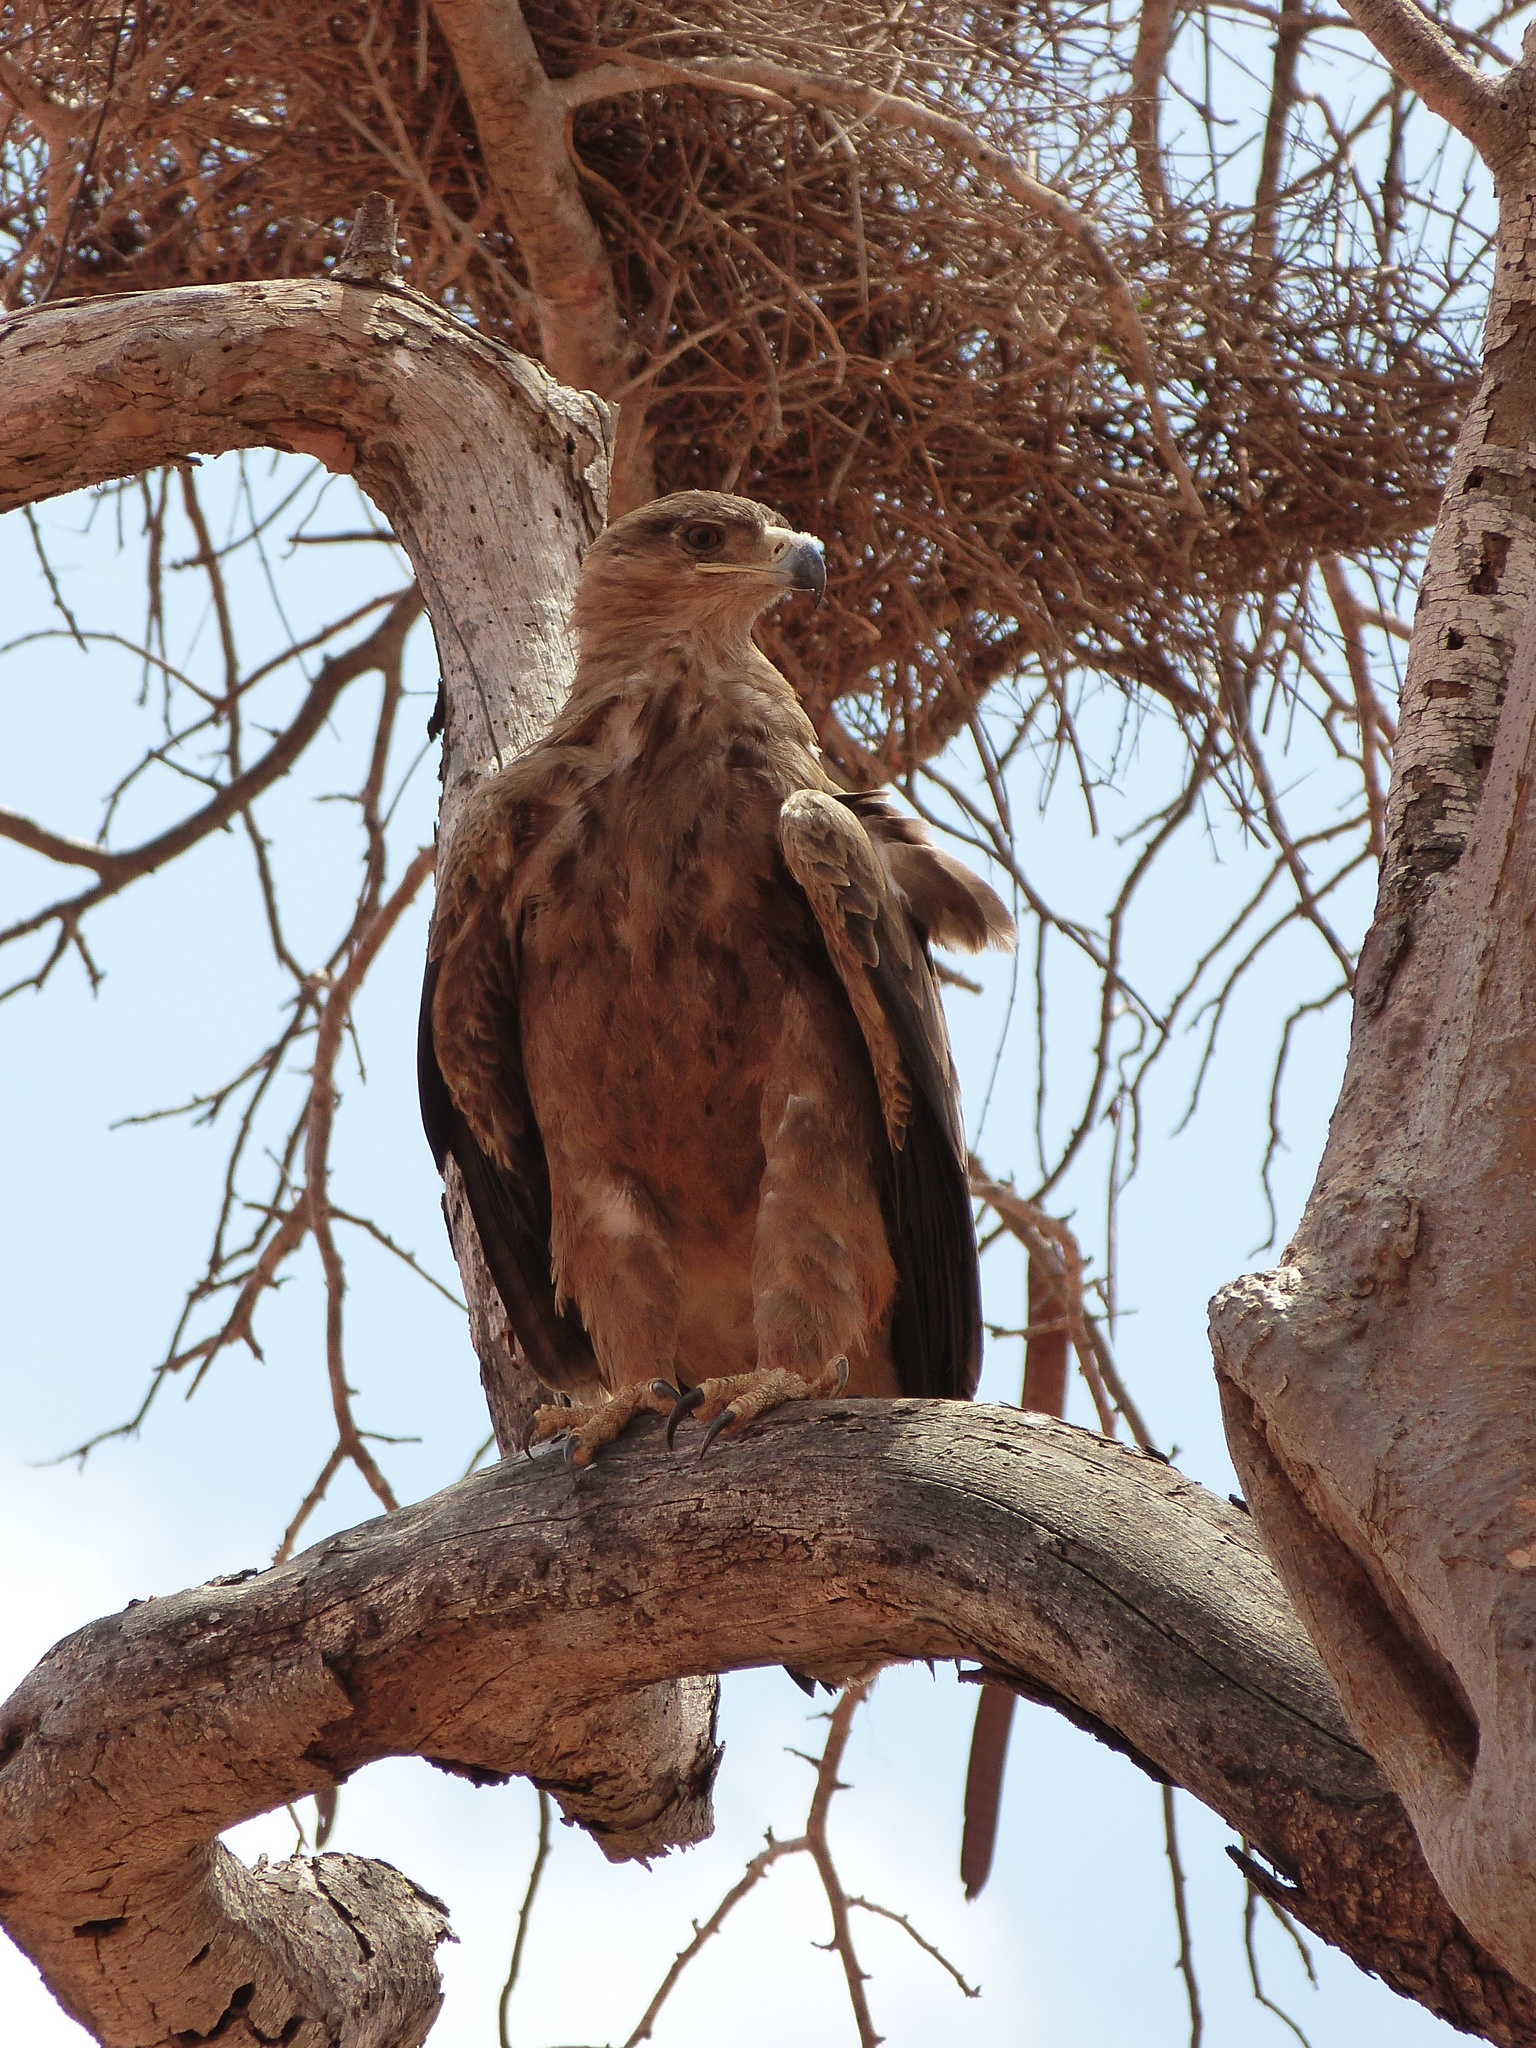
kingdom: Animalia
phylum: Chordata
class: Aves
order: Accipitriformes
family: Accipitridae
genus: Aquila
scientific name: Aquila rapax
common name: Tawny eagle
